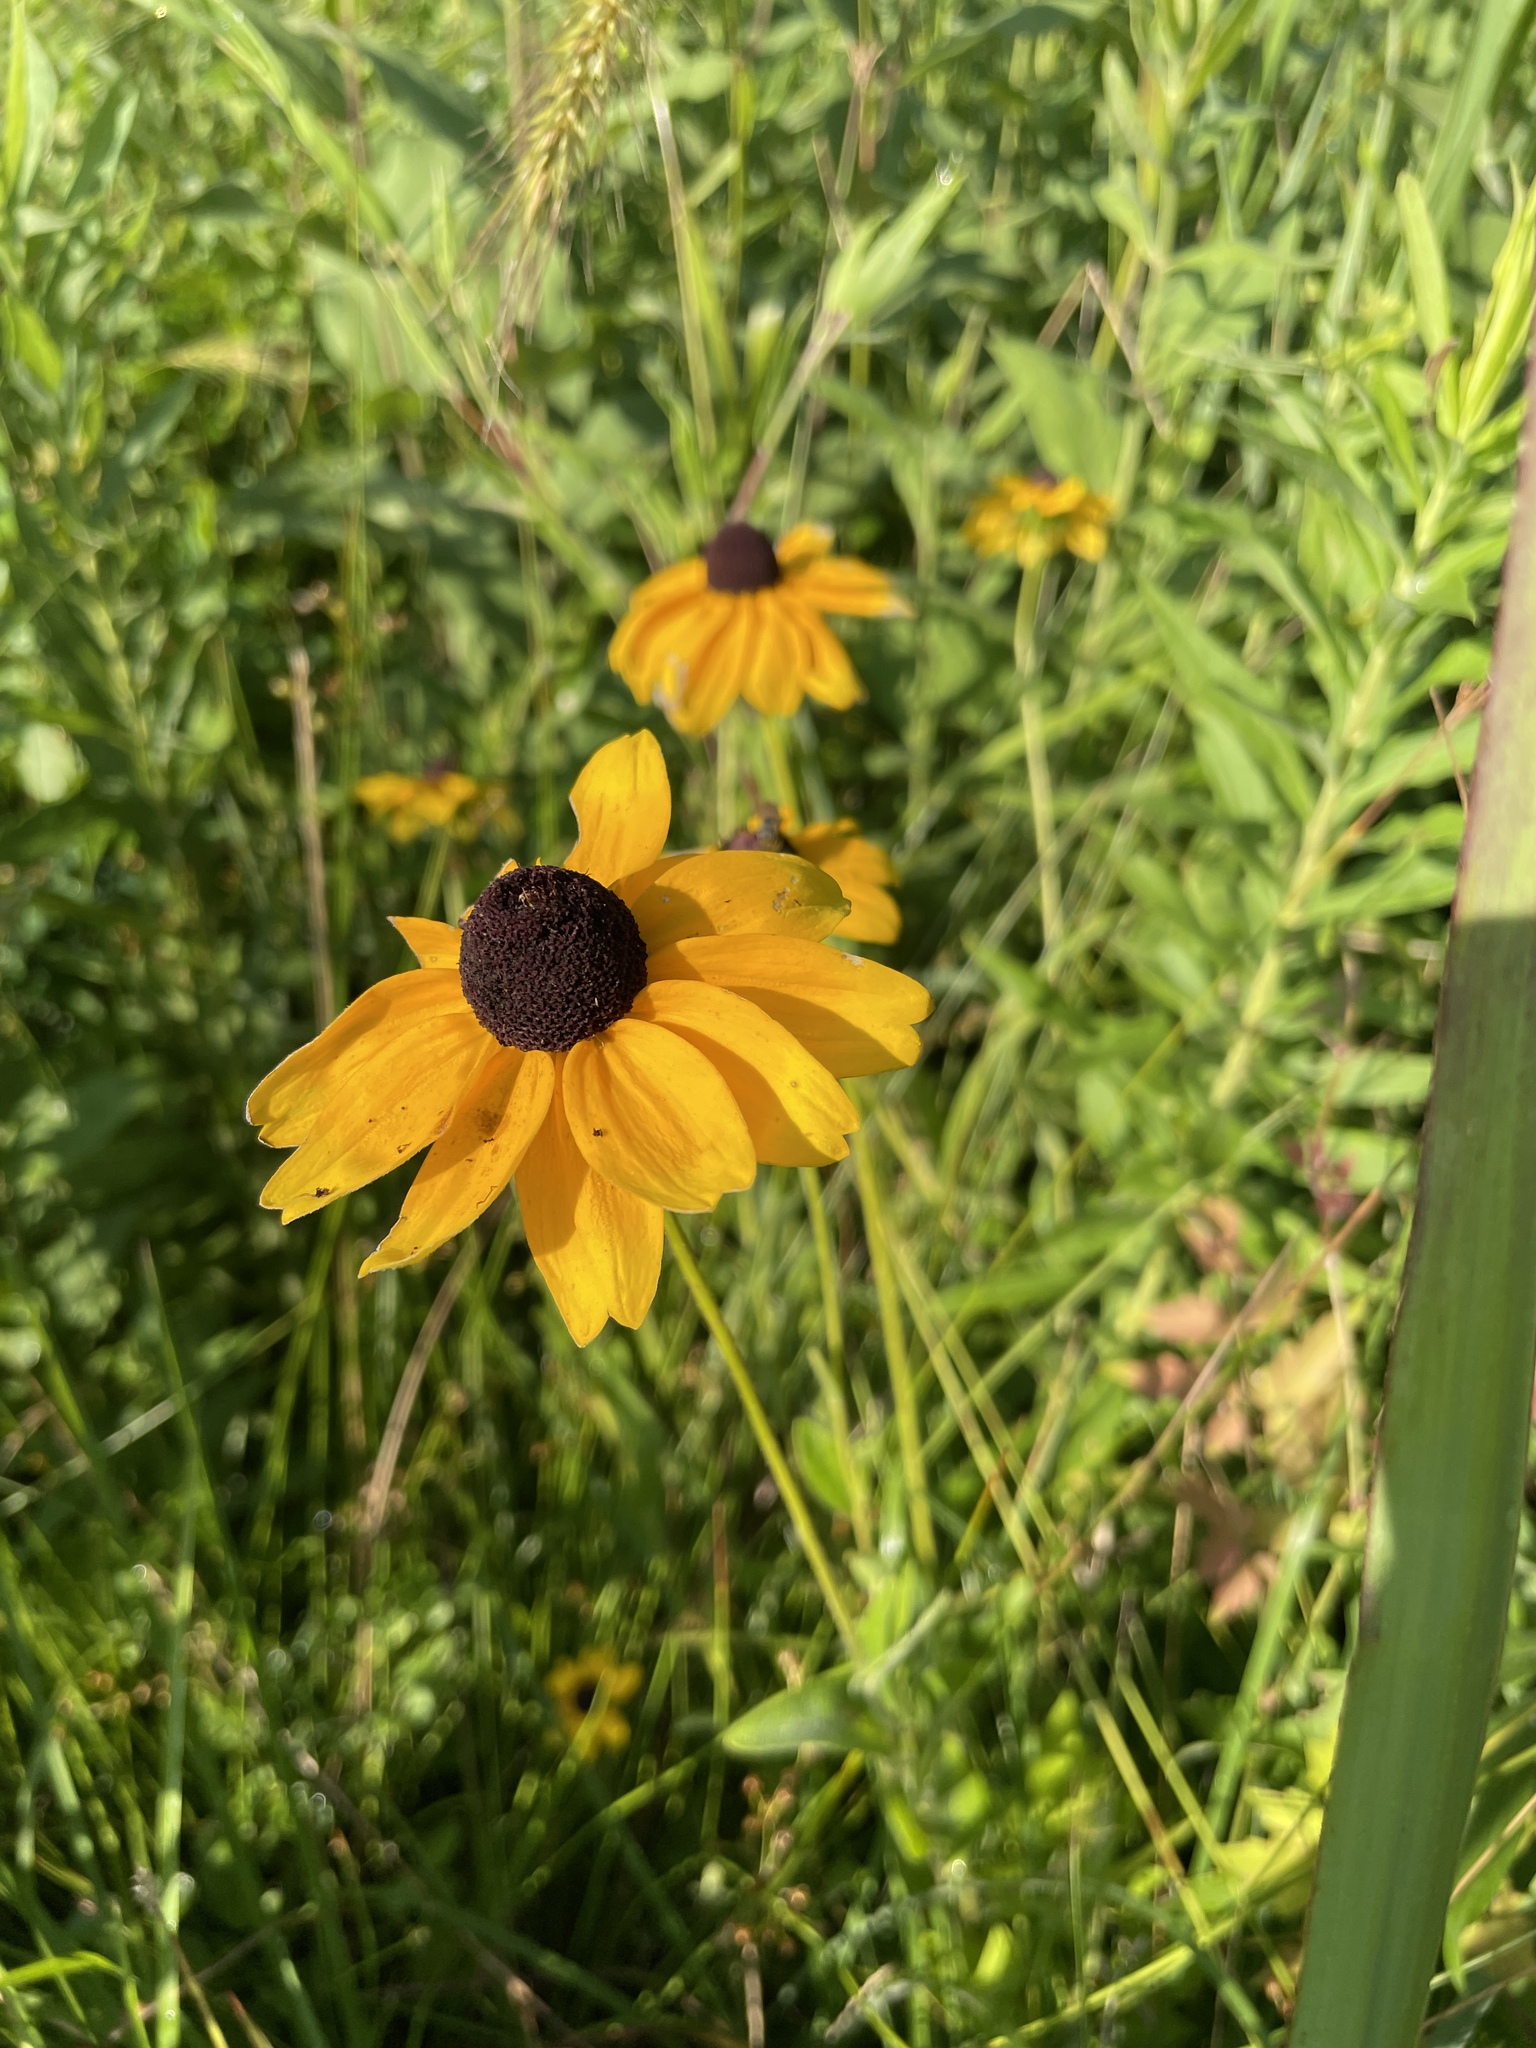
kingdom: Plantae
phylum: Tracheophyta
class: Magnoliopsida
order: Asterales
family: Asteraceae
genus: Rudbeckia
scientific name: Rudbeckia hirta
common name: Black-eyed-susan
